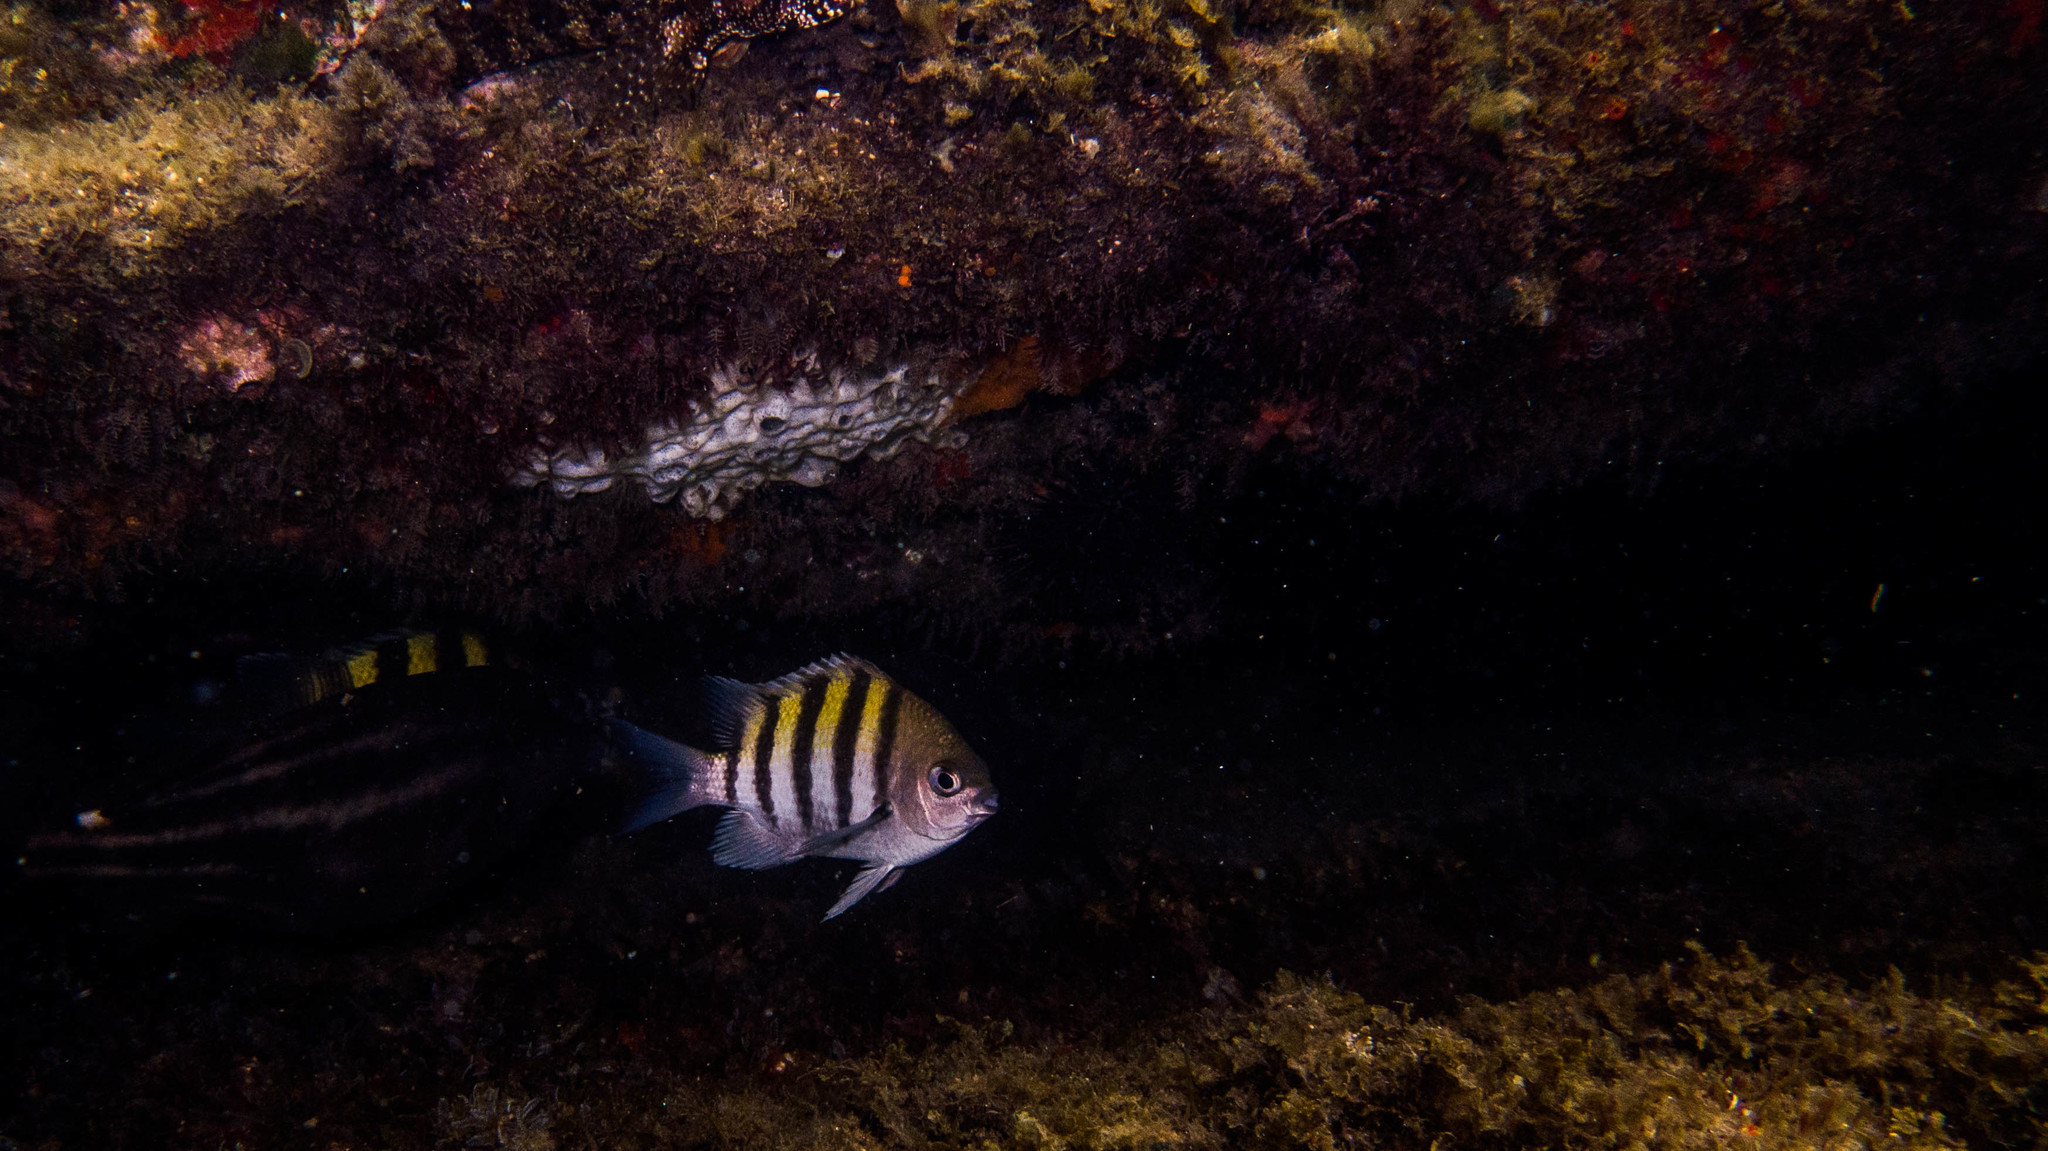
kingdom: Animalia
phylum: Chordata
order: Perciformes
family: Pomacentridae
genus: Abudefduf
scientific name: Abudefduf saxatilis
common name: Sergeant major
